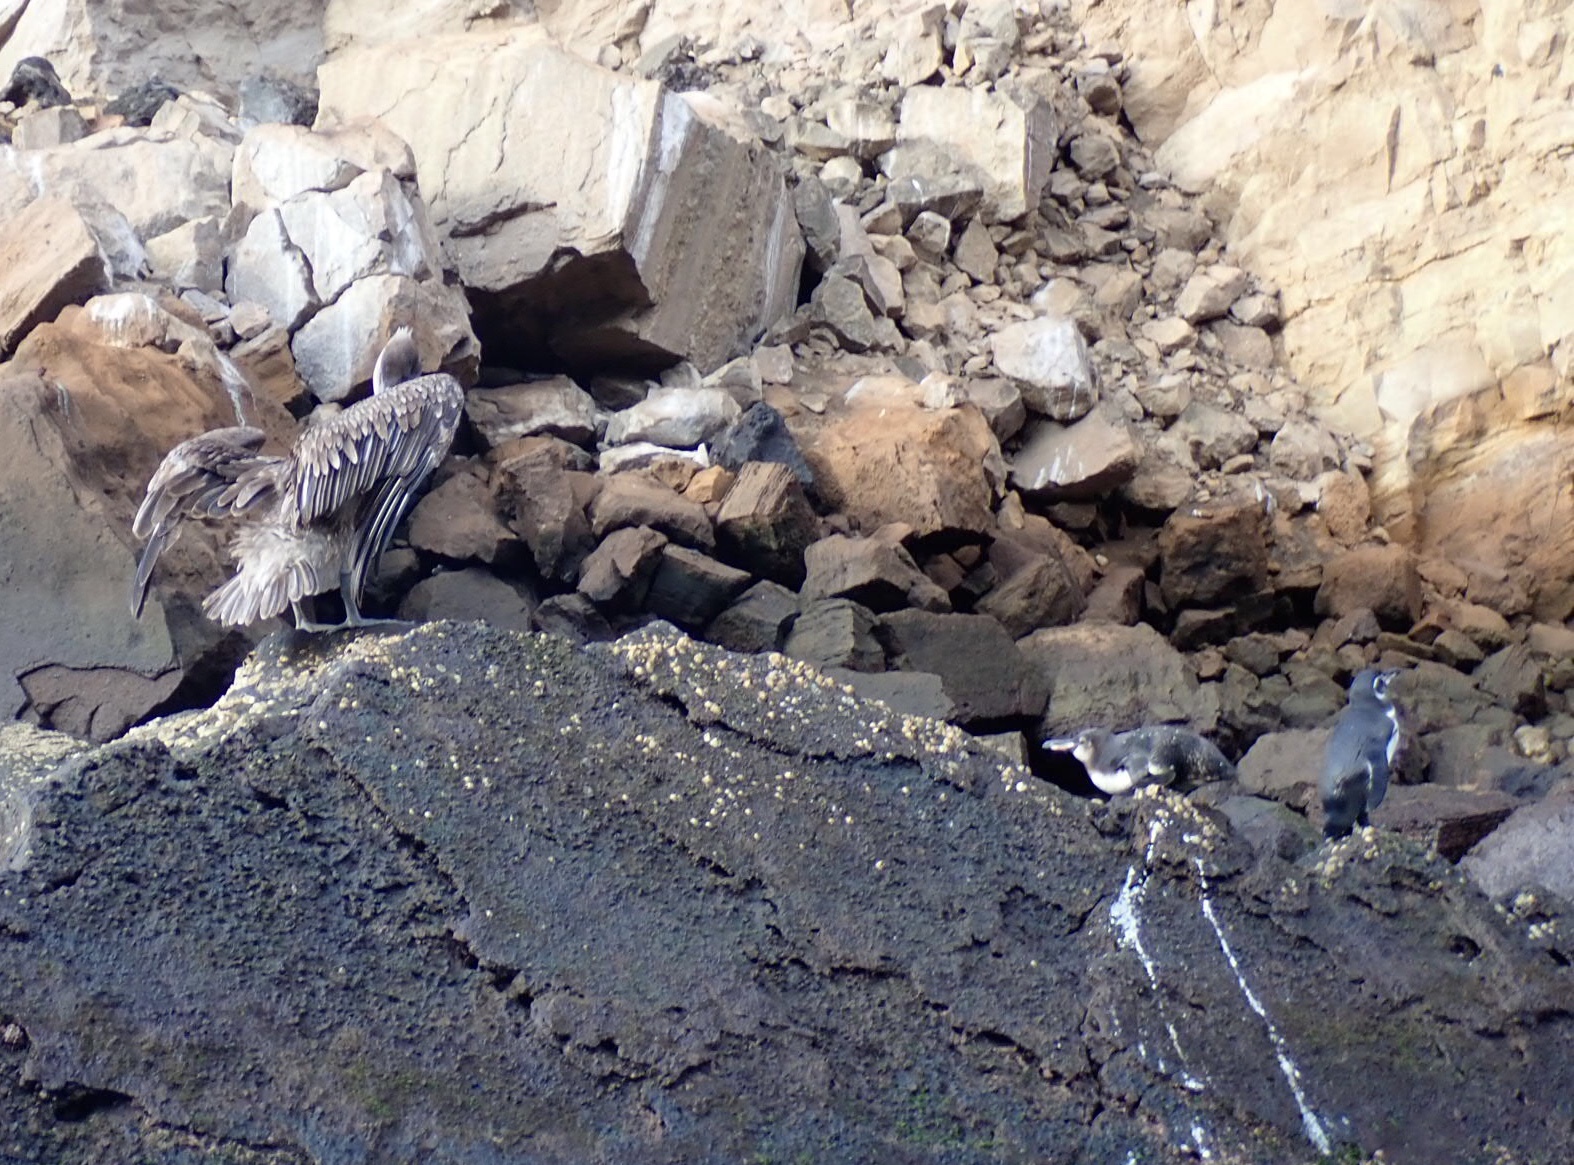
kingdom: Animalia
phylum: Chordata
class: Aves
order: Sphenisciformes
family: Spheniscidae
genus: Spheniscus
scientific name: Spheniscus mendiculus
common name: Galapagos penguin
